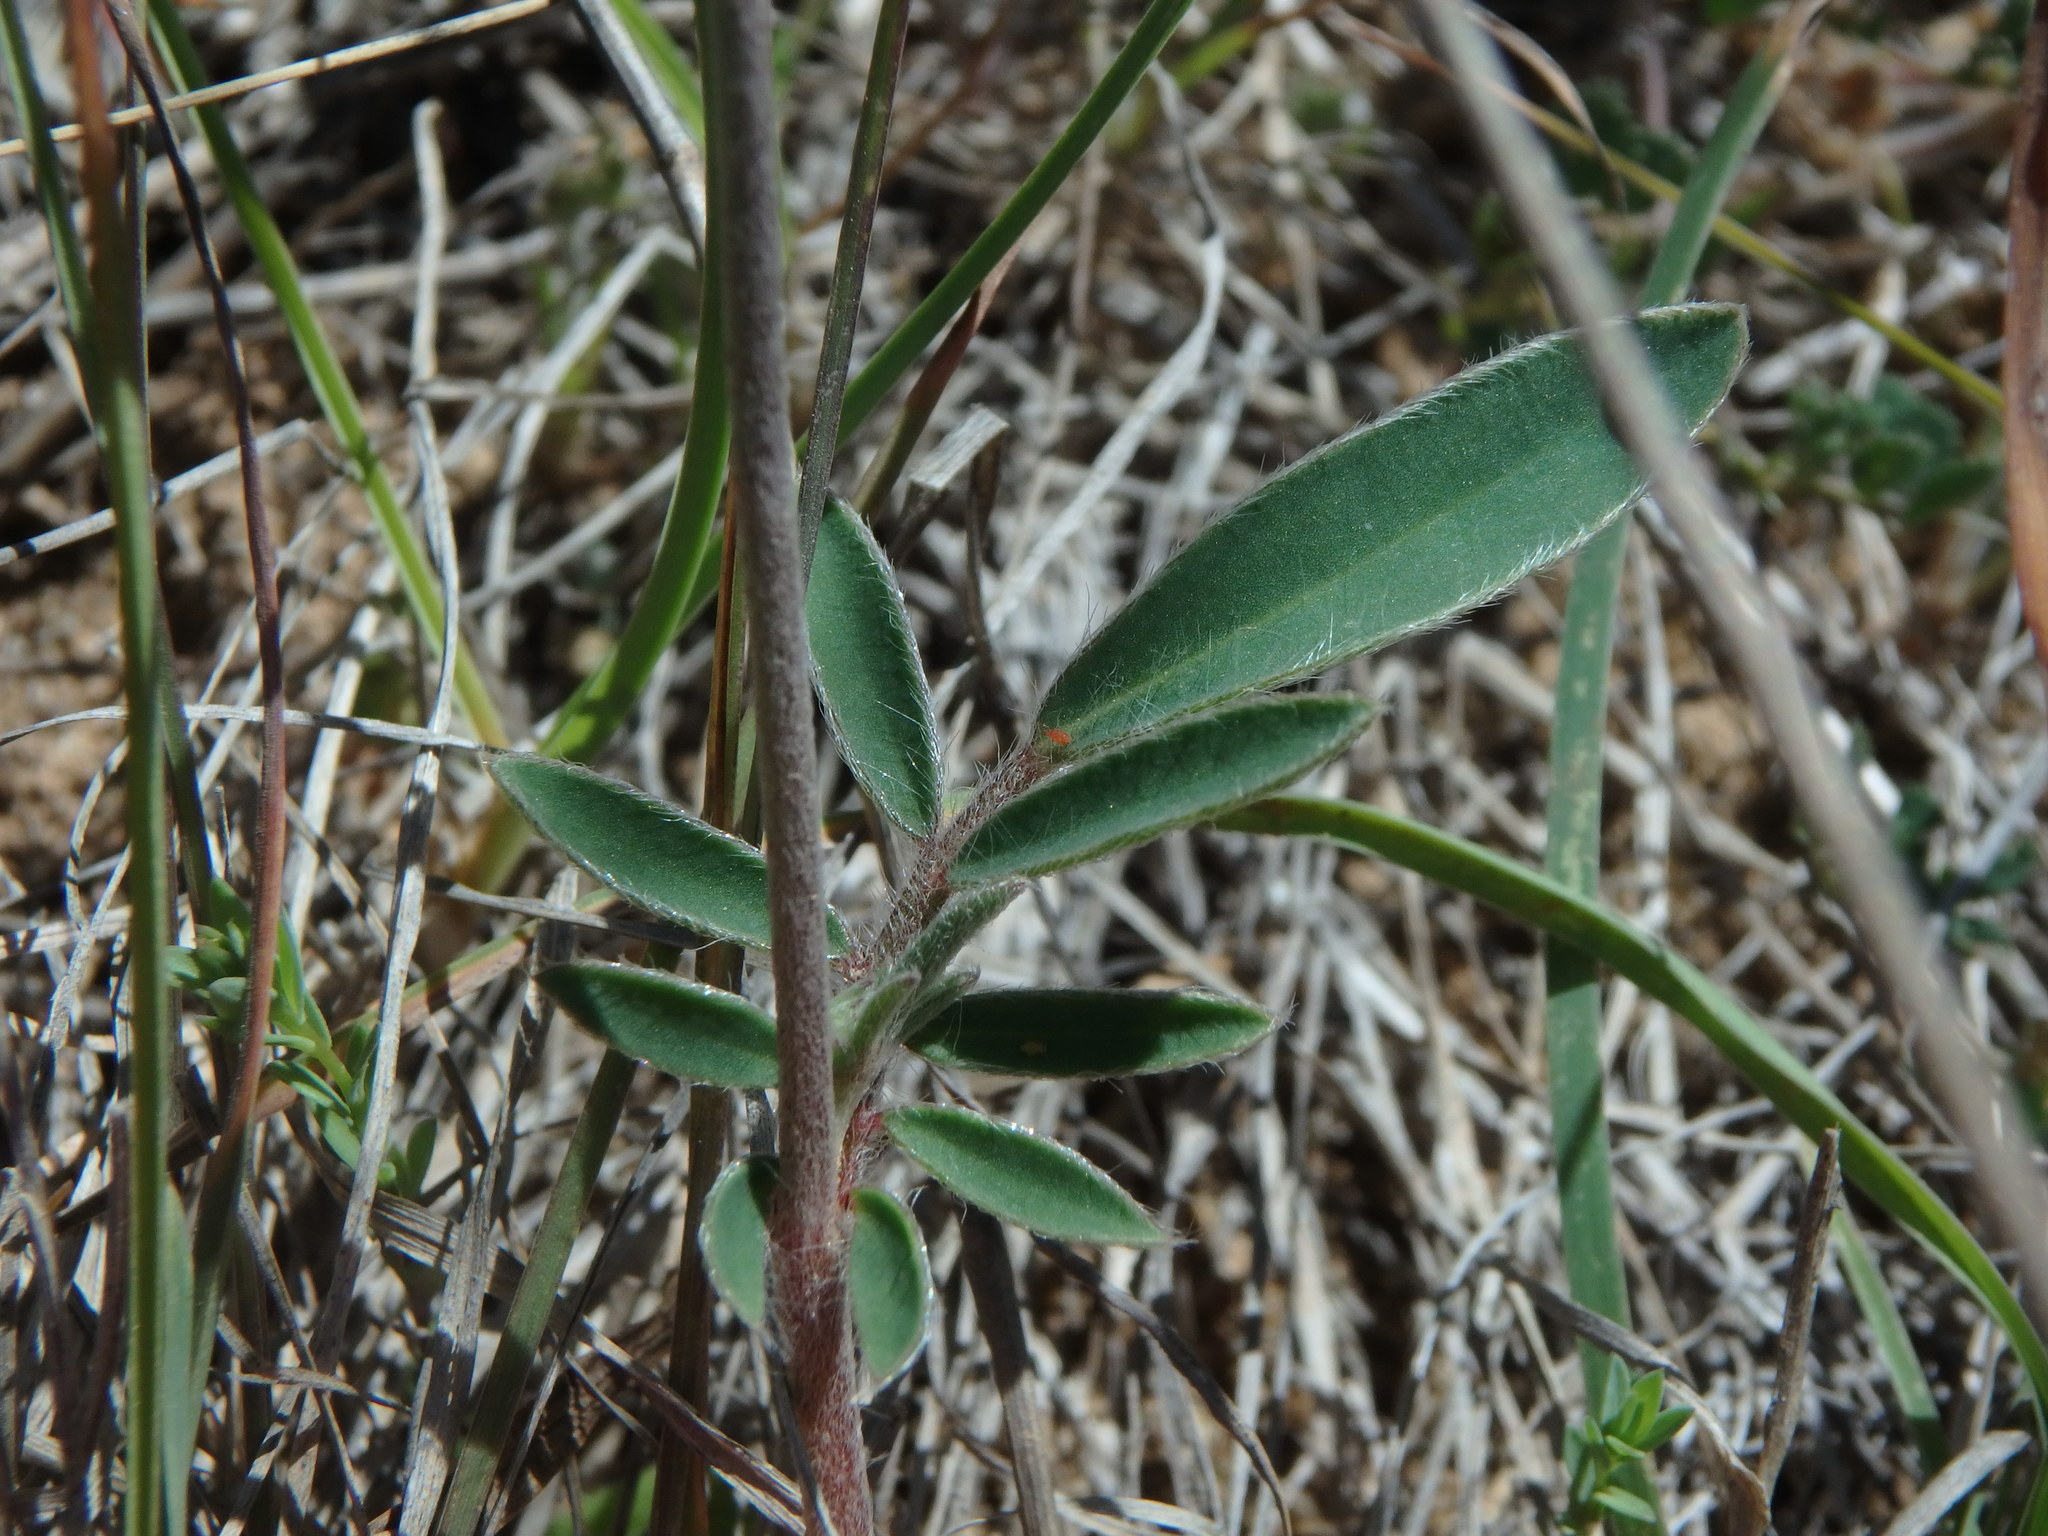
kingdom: Plantae
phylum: Tracheophyta
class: Magnoliopsida
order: Fabales
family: Fabaceae
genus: Anthyllis
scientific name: Anthyllis vulneraria
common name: Kidney vetch
